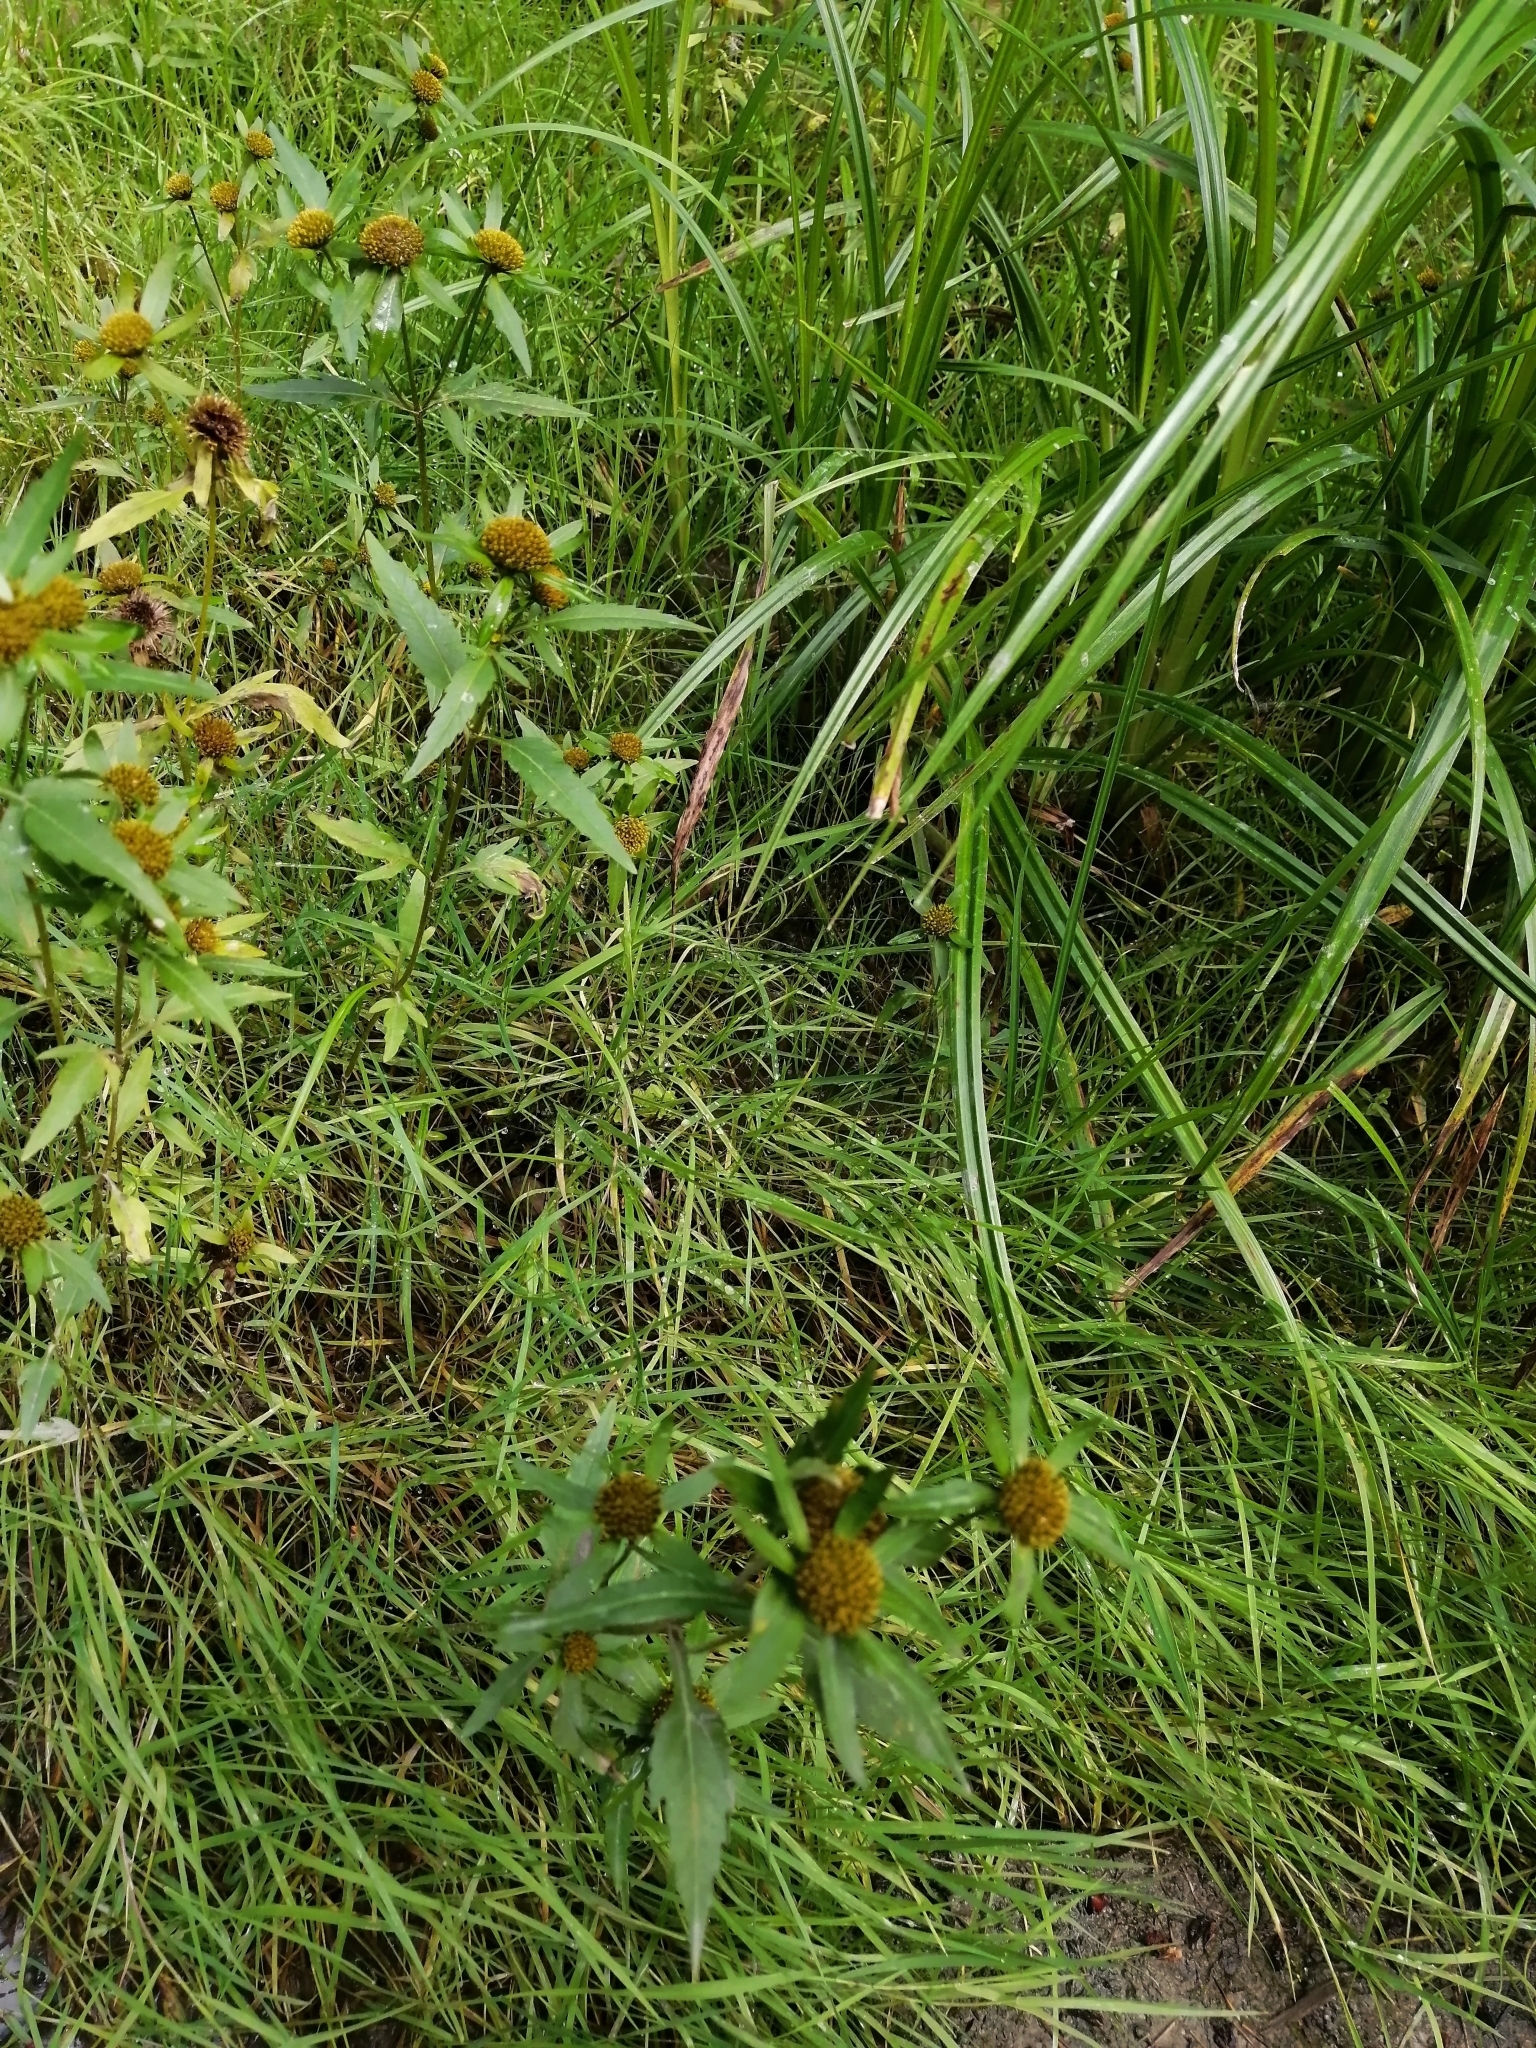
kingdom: Plantae
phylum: Tracheophyta
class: Magnoliopsida
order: Asterales
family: Asteraceae
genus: Bidens
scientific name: Bidens radiata
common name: Radiating bur-marigold
